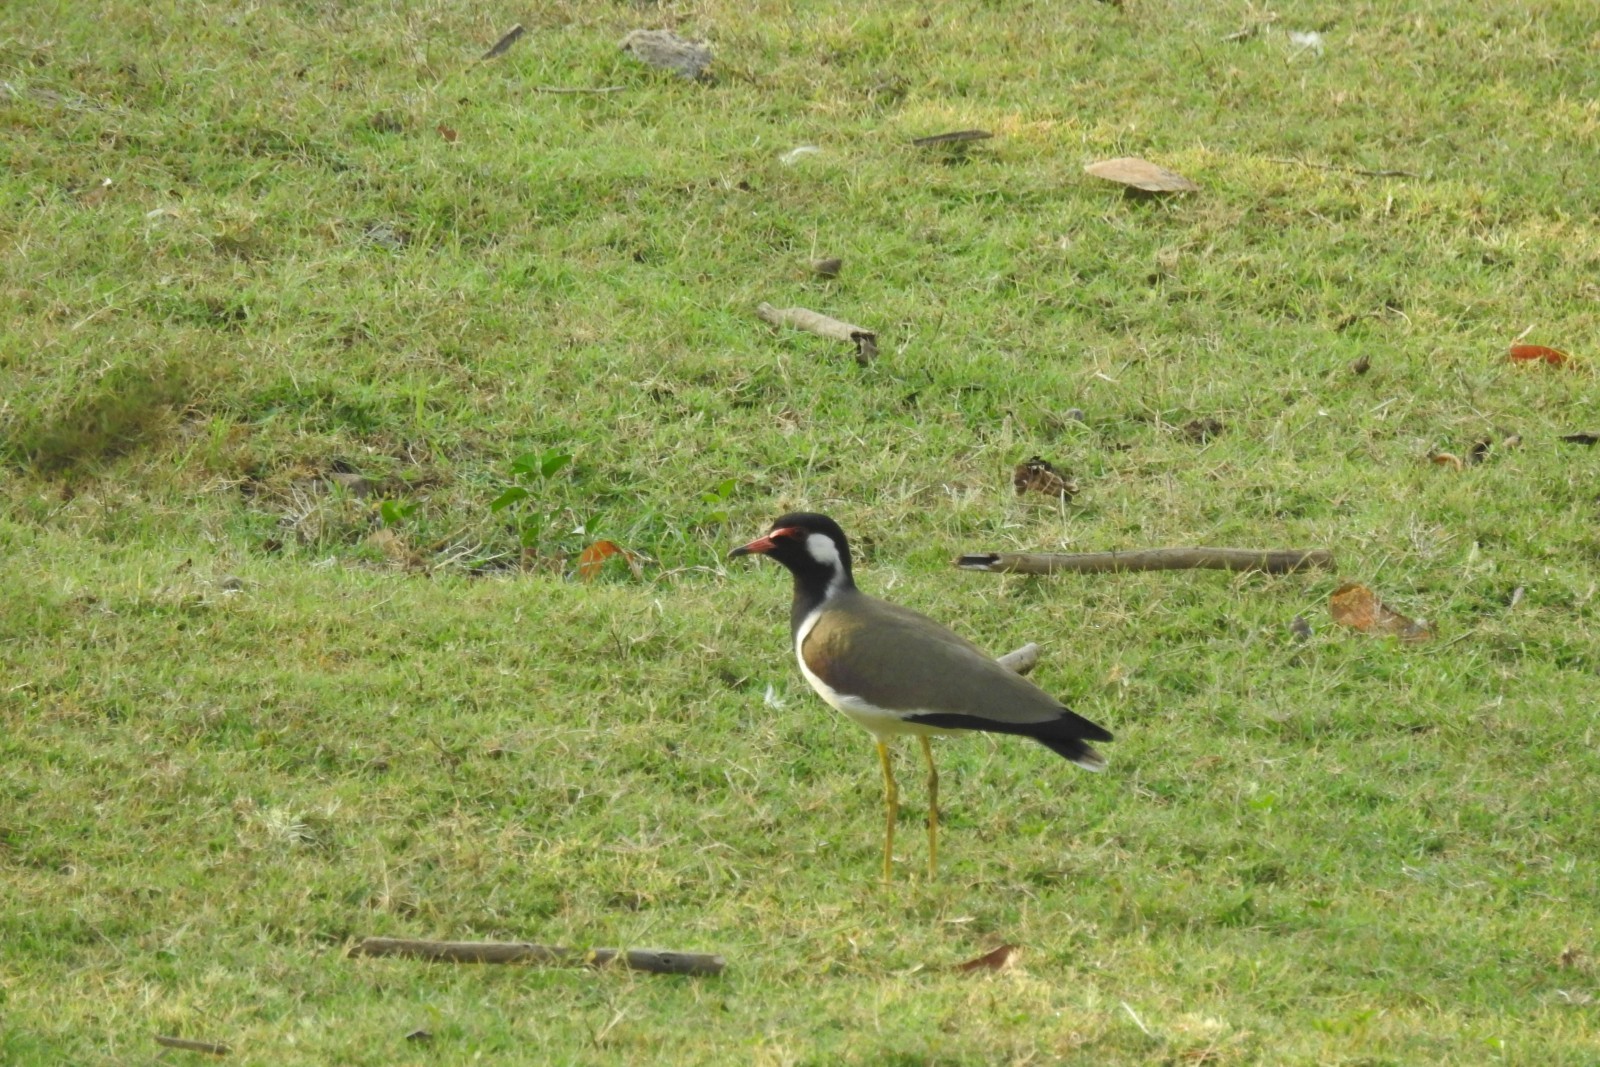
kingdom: Animalia
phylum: Chordata
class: Aves
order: Charadriiformes
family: Charadriidae
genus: Vanellus
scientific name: Vanellus indicus
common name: Red-wattled lapwing
